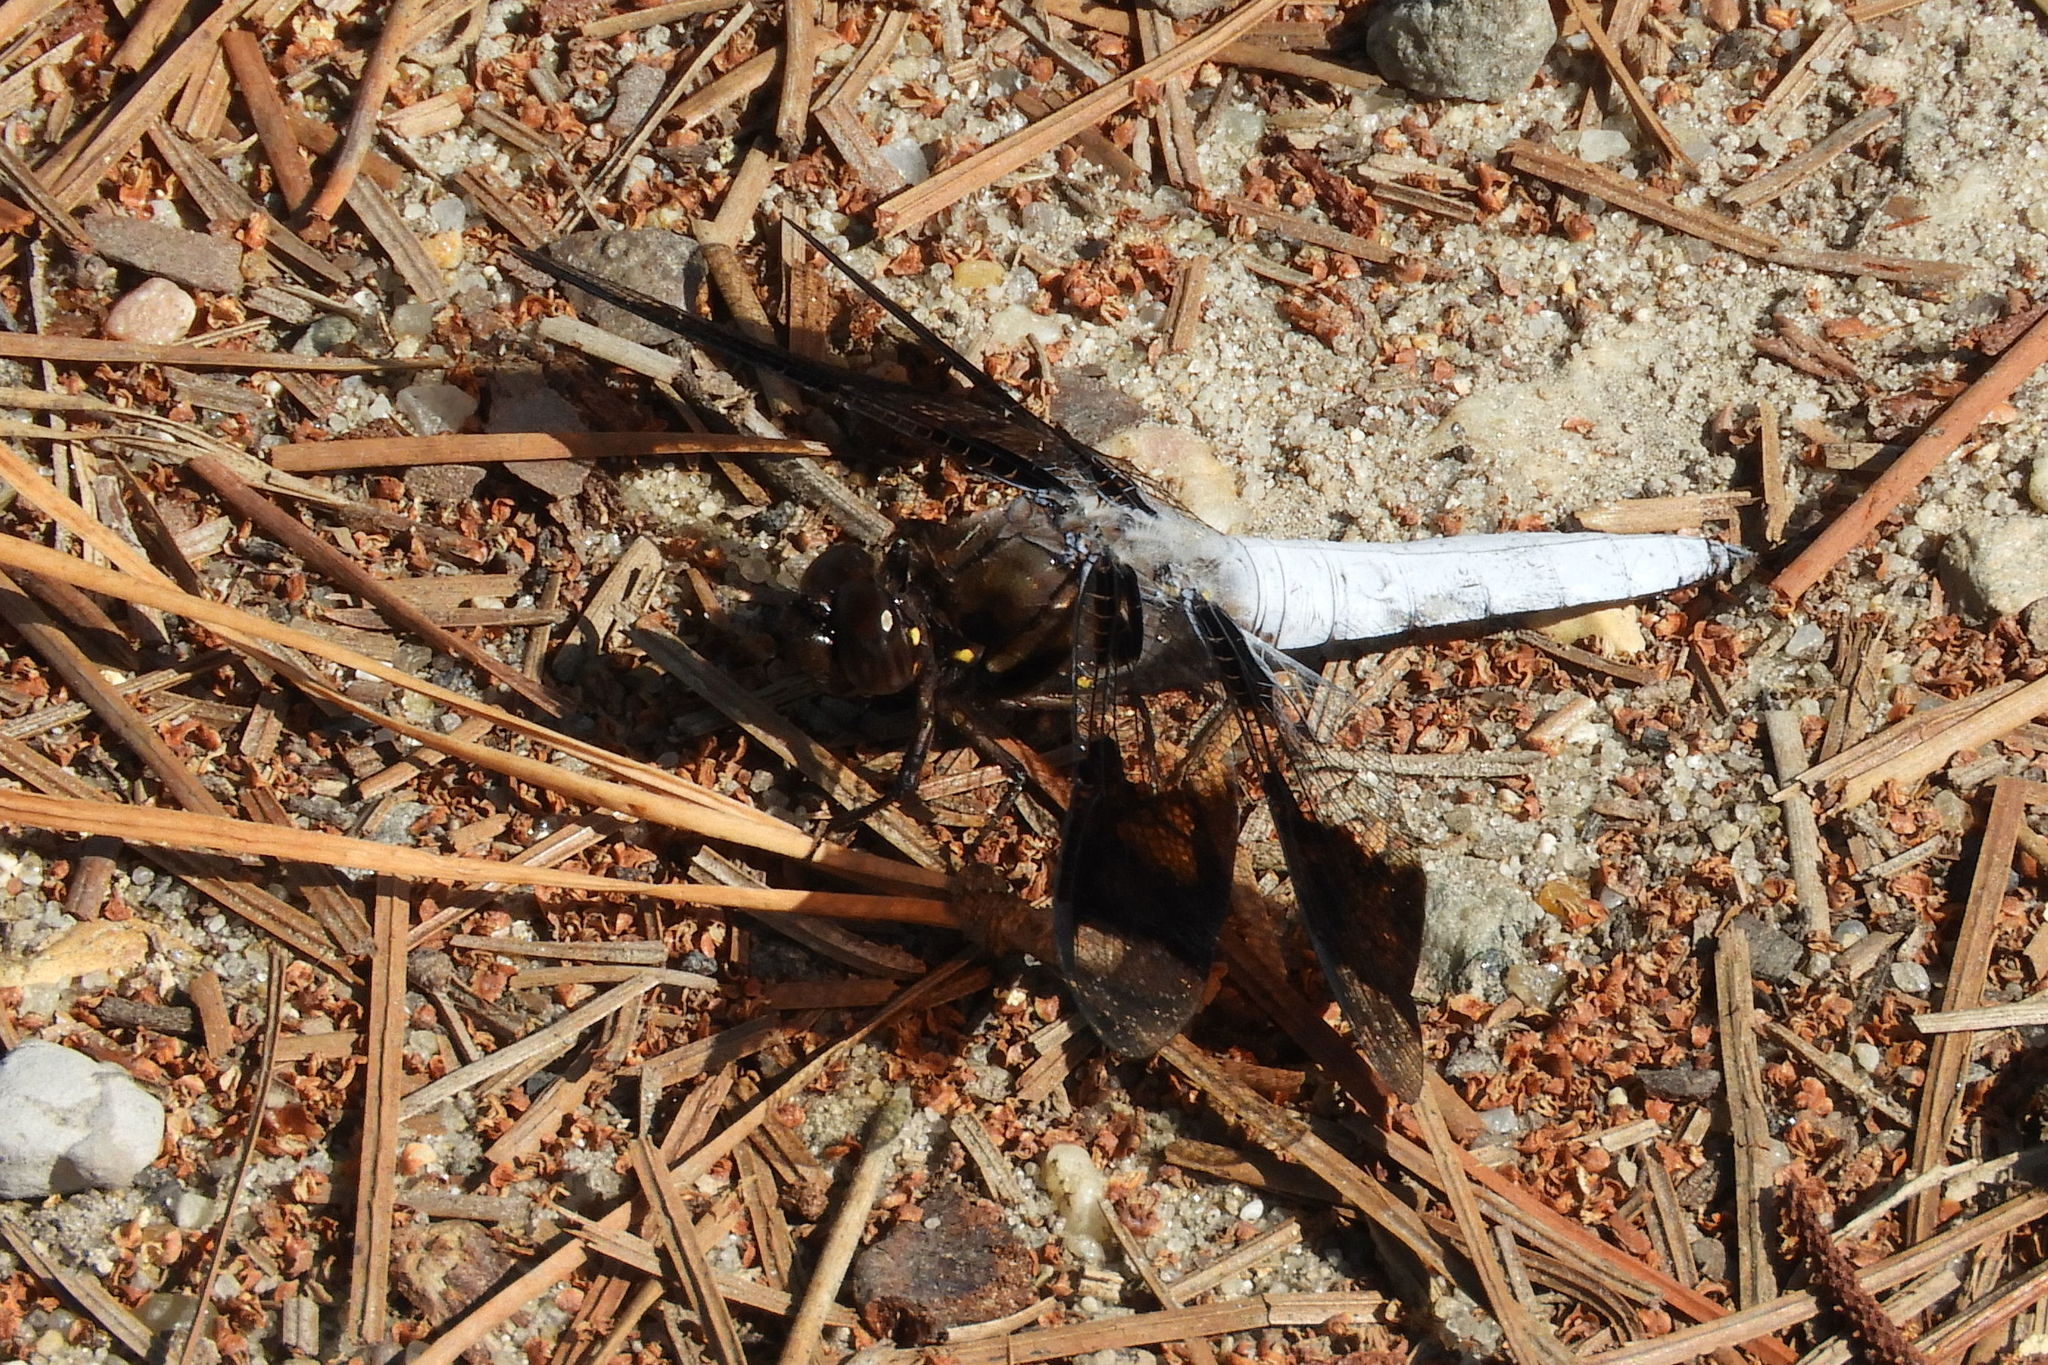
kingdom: Animalia
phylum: Arthropoda
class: Insecta
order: Odonata
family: Libellulidae
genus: Plathemis
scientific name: Plathemis lydia
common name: Common whitetail
